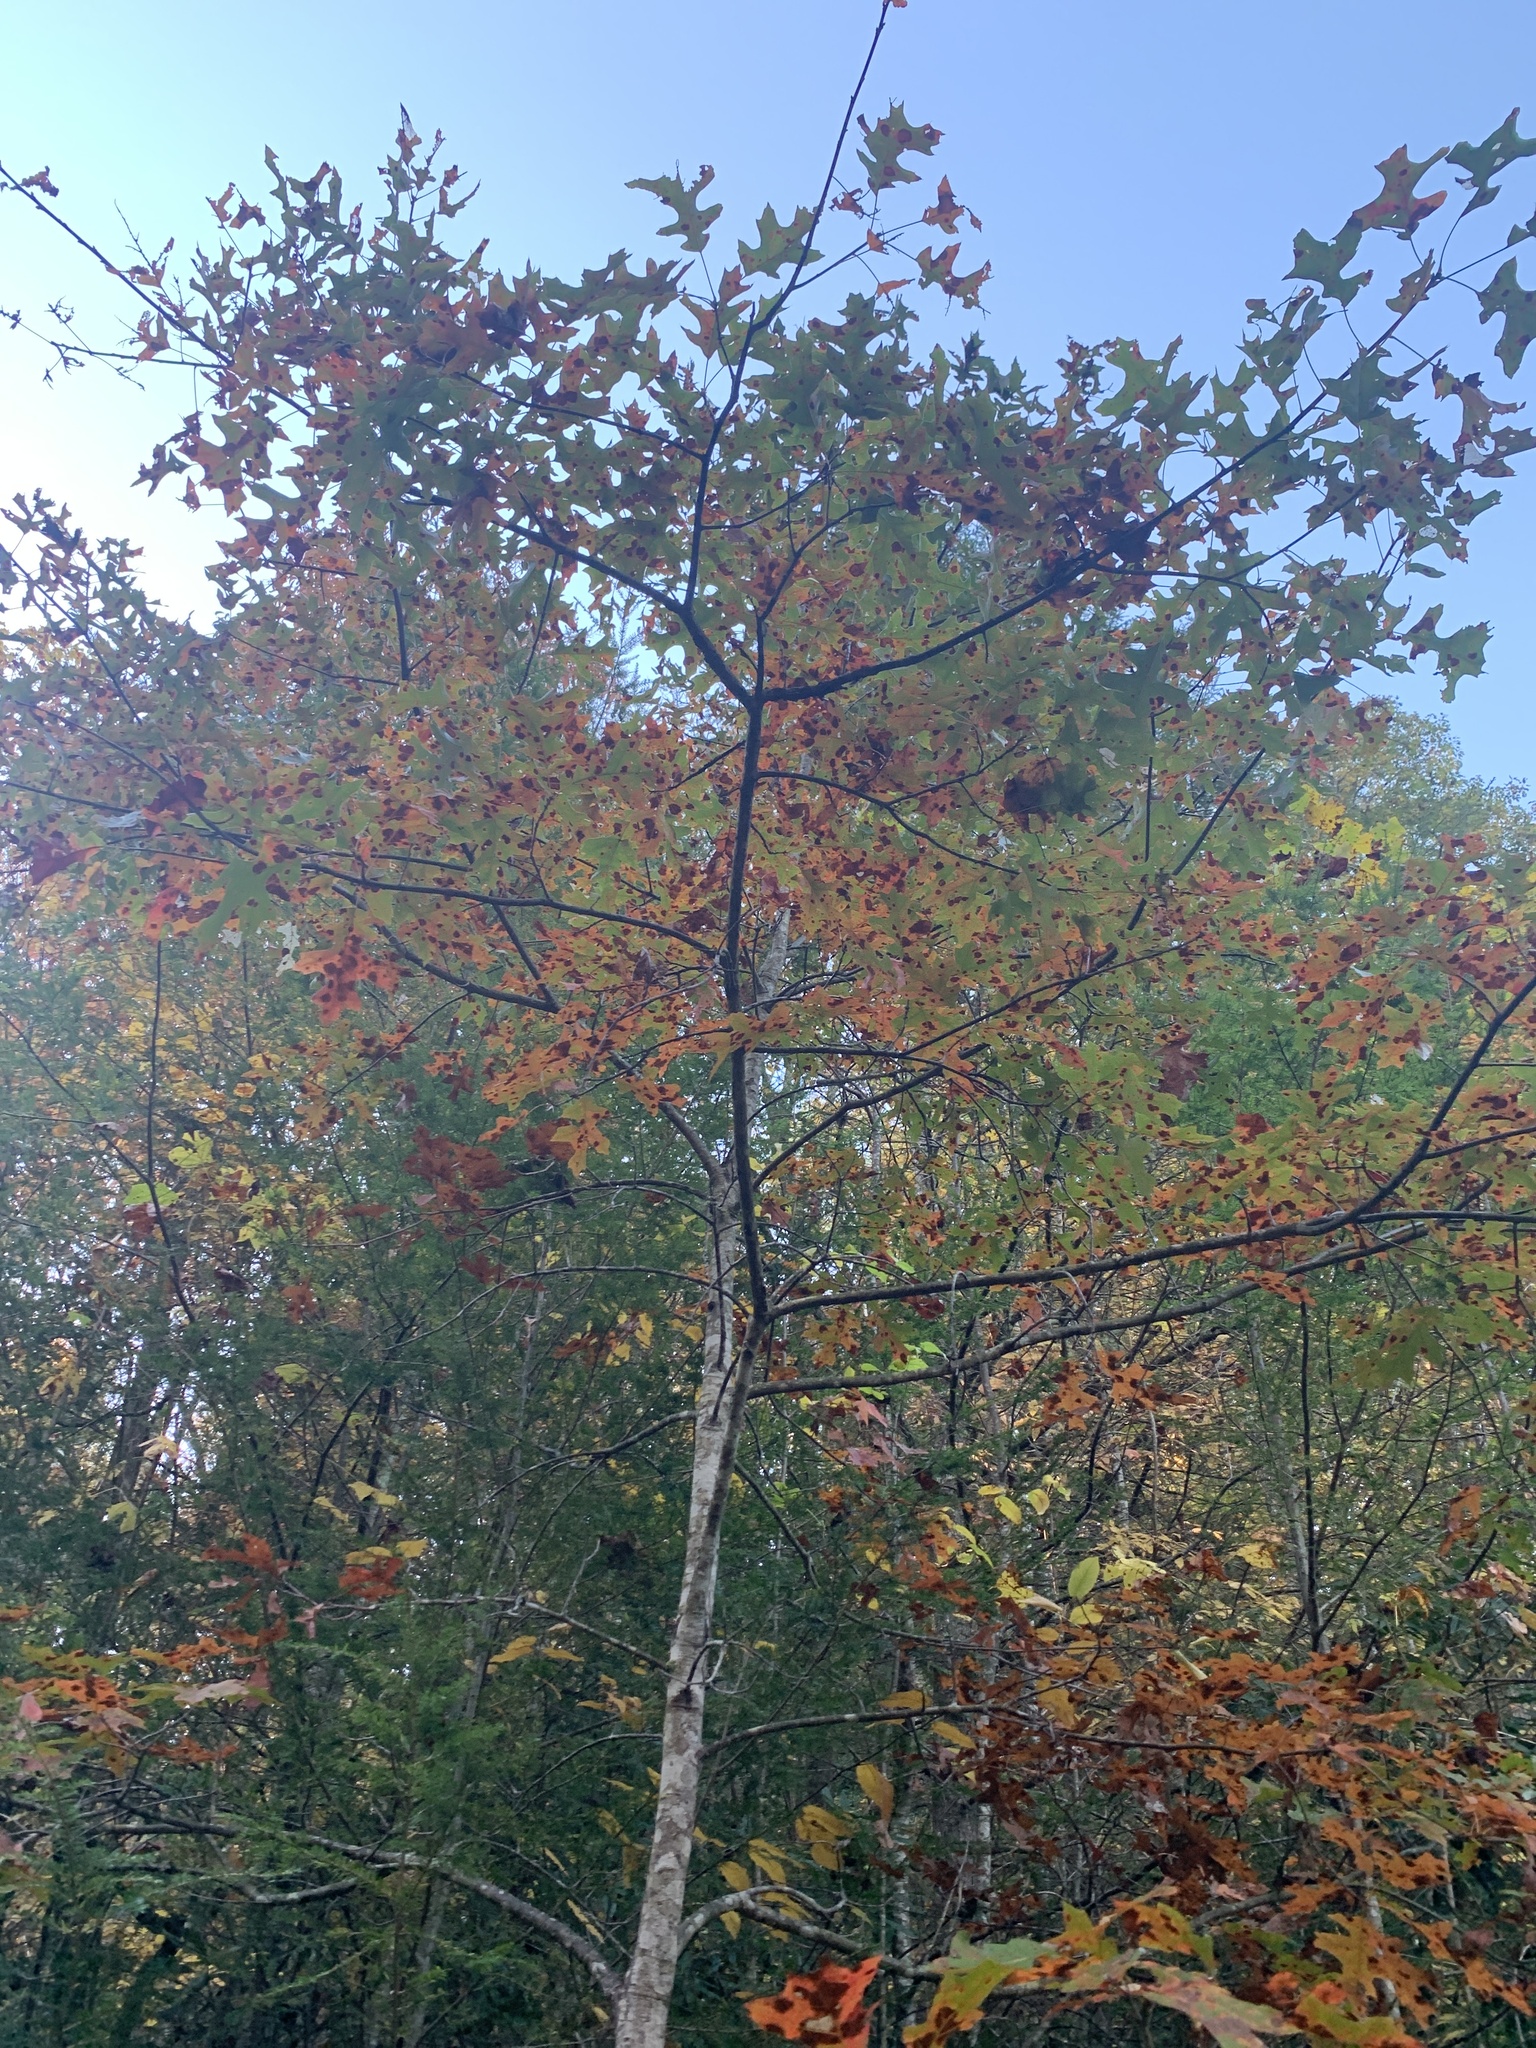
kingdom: Plantae
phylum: Tracheophyta
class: Magnoliopsida
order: Fagales
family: Fagaceae
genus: Quercus
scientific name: Quercus coccinea
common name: Scarlet oak
